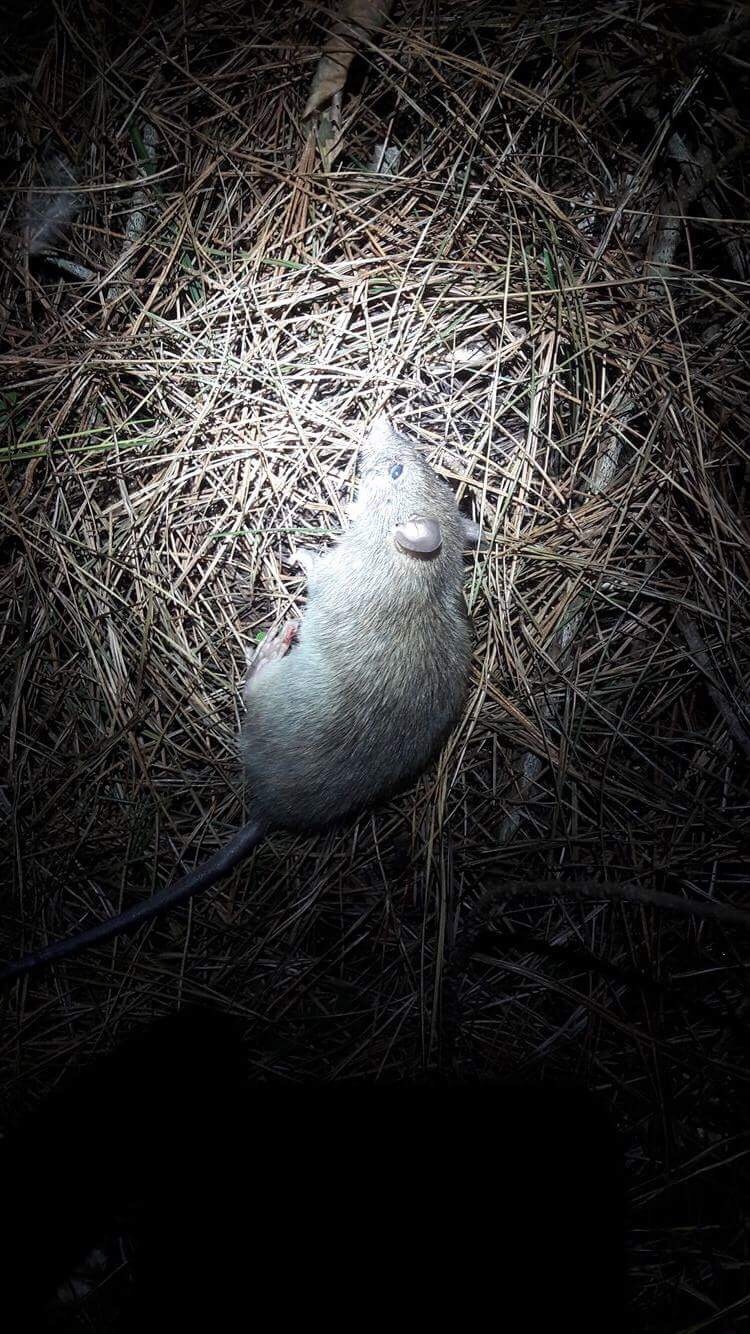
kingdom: Animalia
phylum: Chordata
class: Mammalia
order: Rodentia
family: Muridae
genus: Rattus
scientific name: Rattus rattus
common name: Black rat
